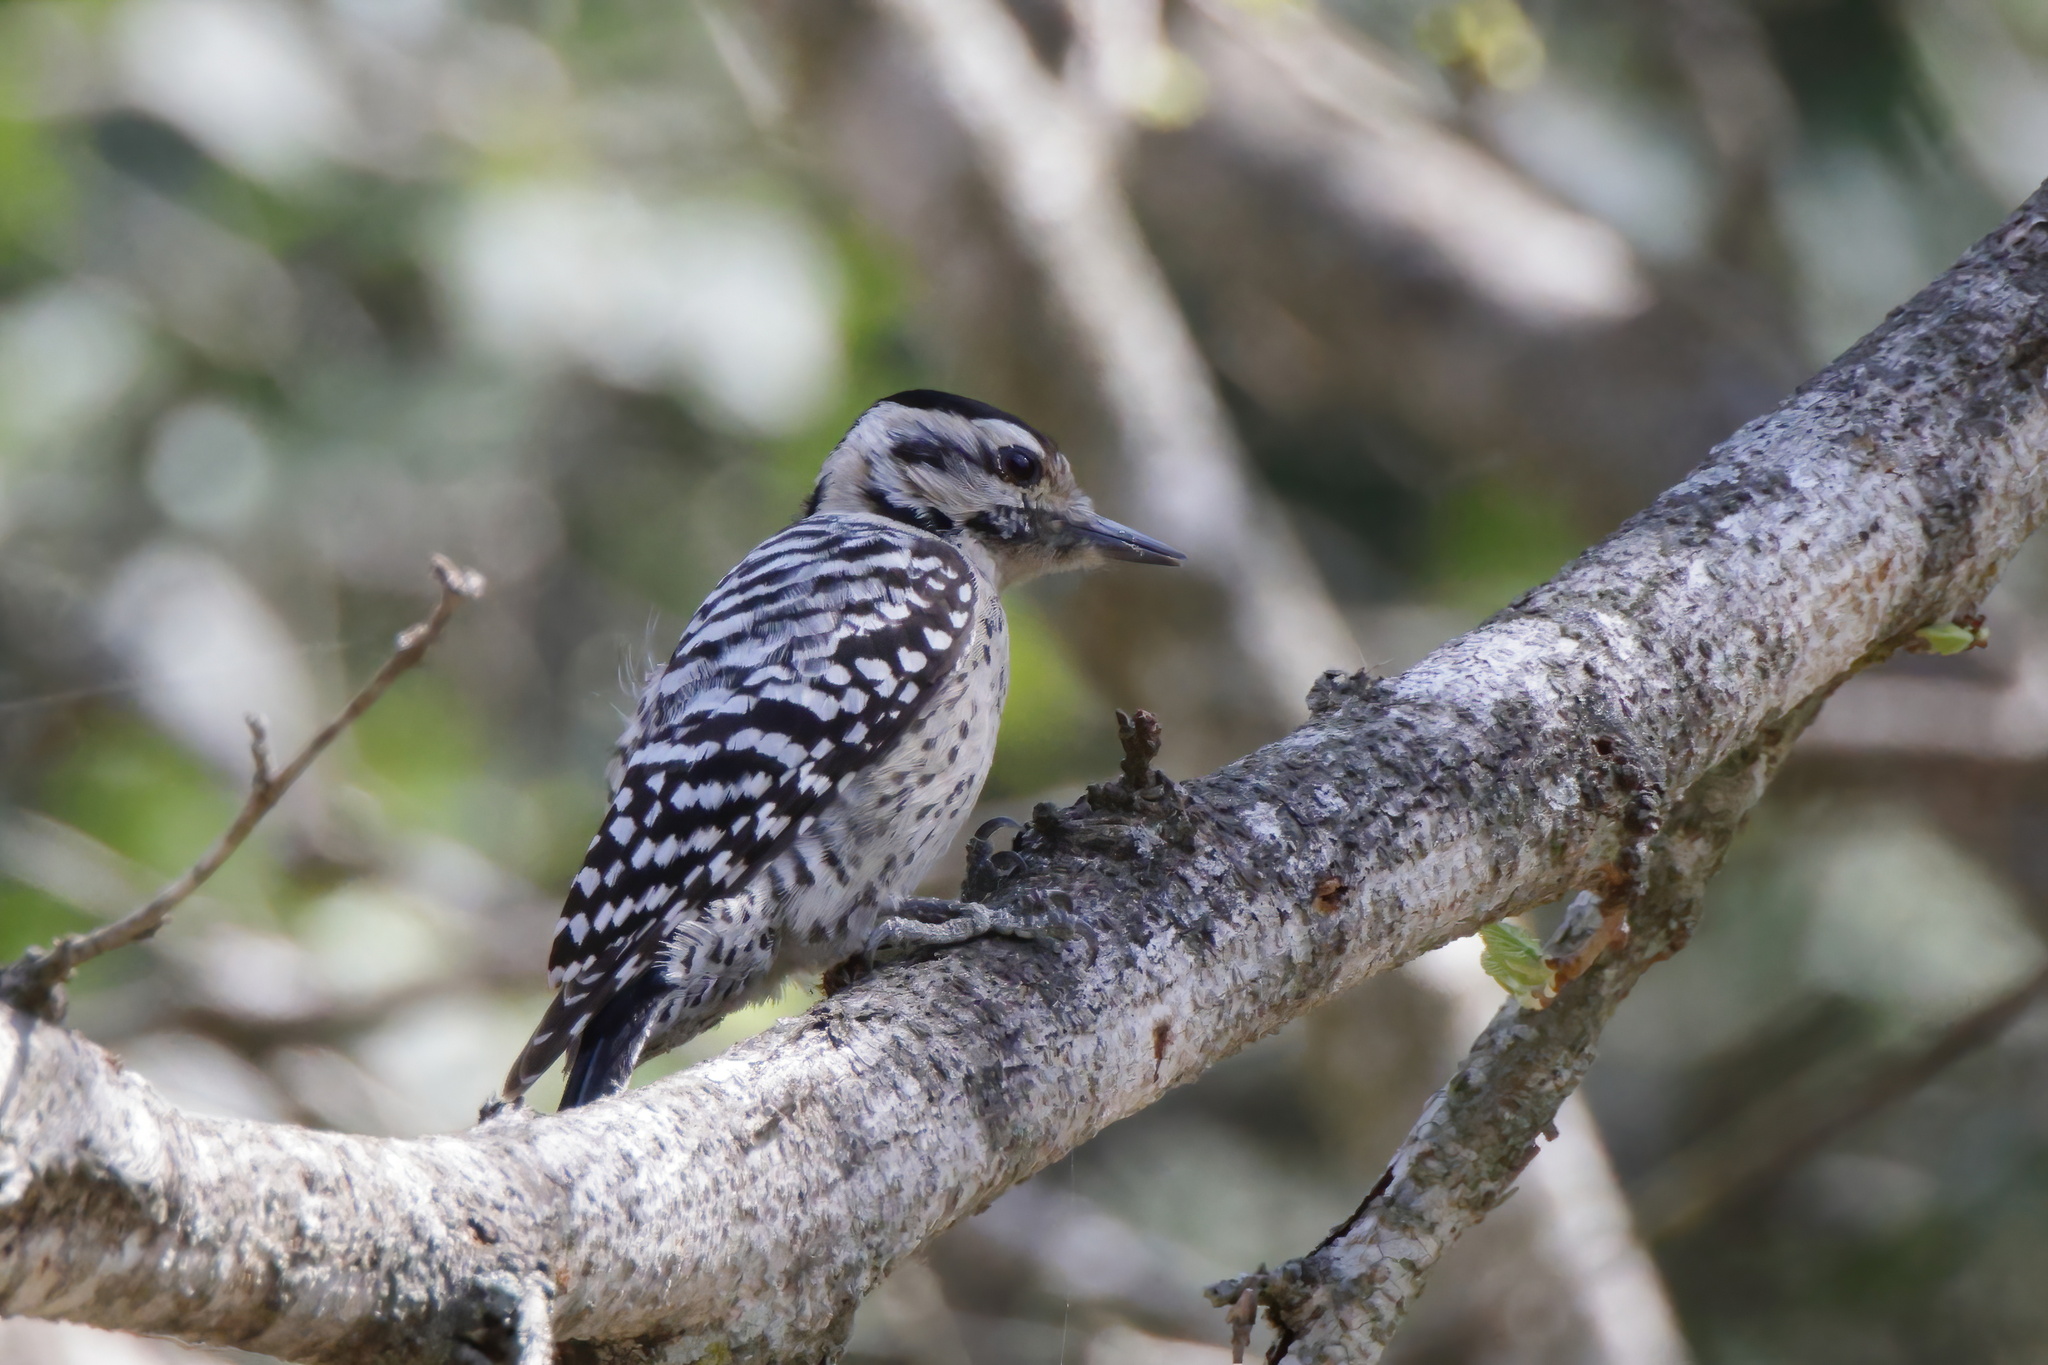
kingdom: Animalia
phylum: Chordata
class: Aves
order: Piciformes
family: Picidae
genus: Dryobates
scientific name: Dryobates scalaris
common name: Ladder-backed woodpecker
